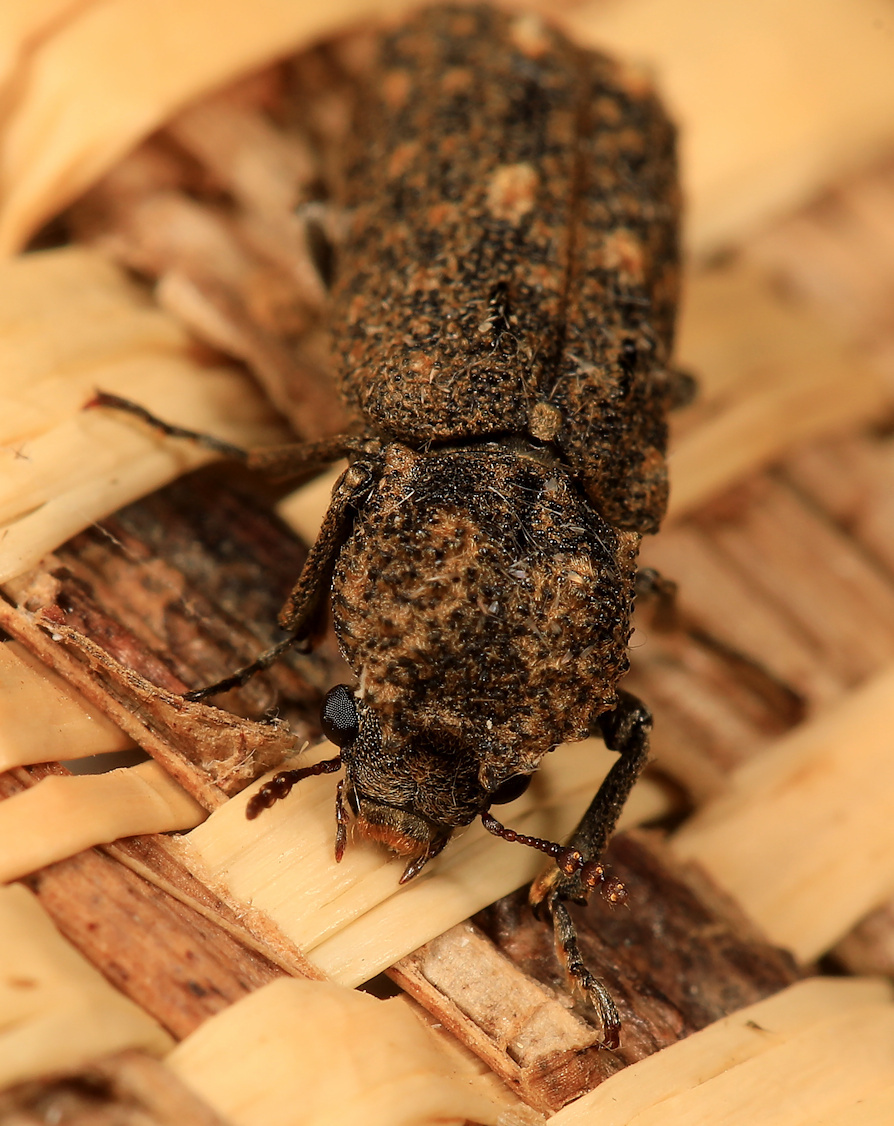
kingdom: Animalia
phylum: Arthropoda
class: Insecta
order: Coleoptera
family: Bostrichidae
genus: Lichenophanes
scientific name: Lichenophanes fascicularis
